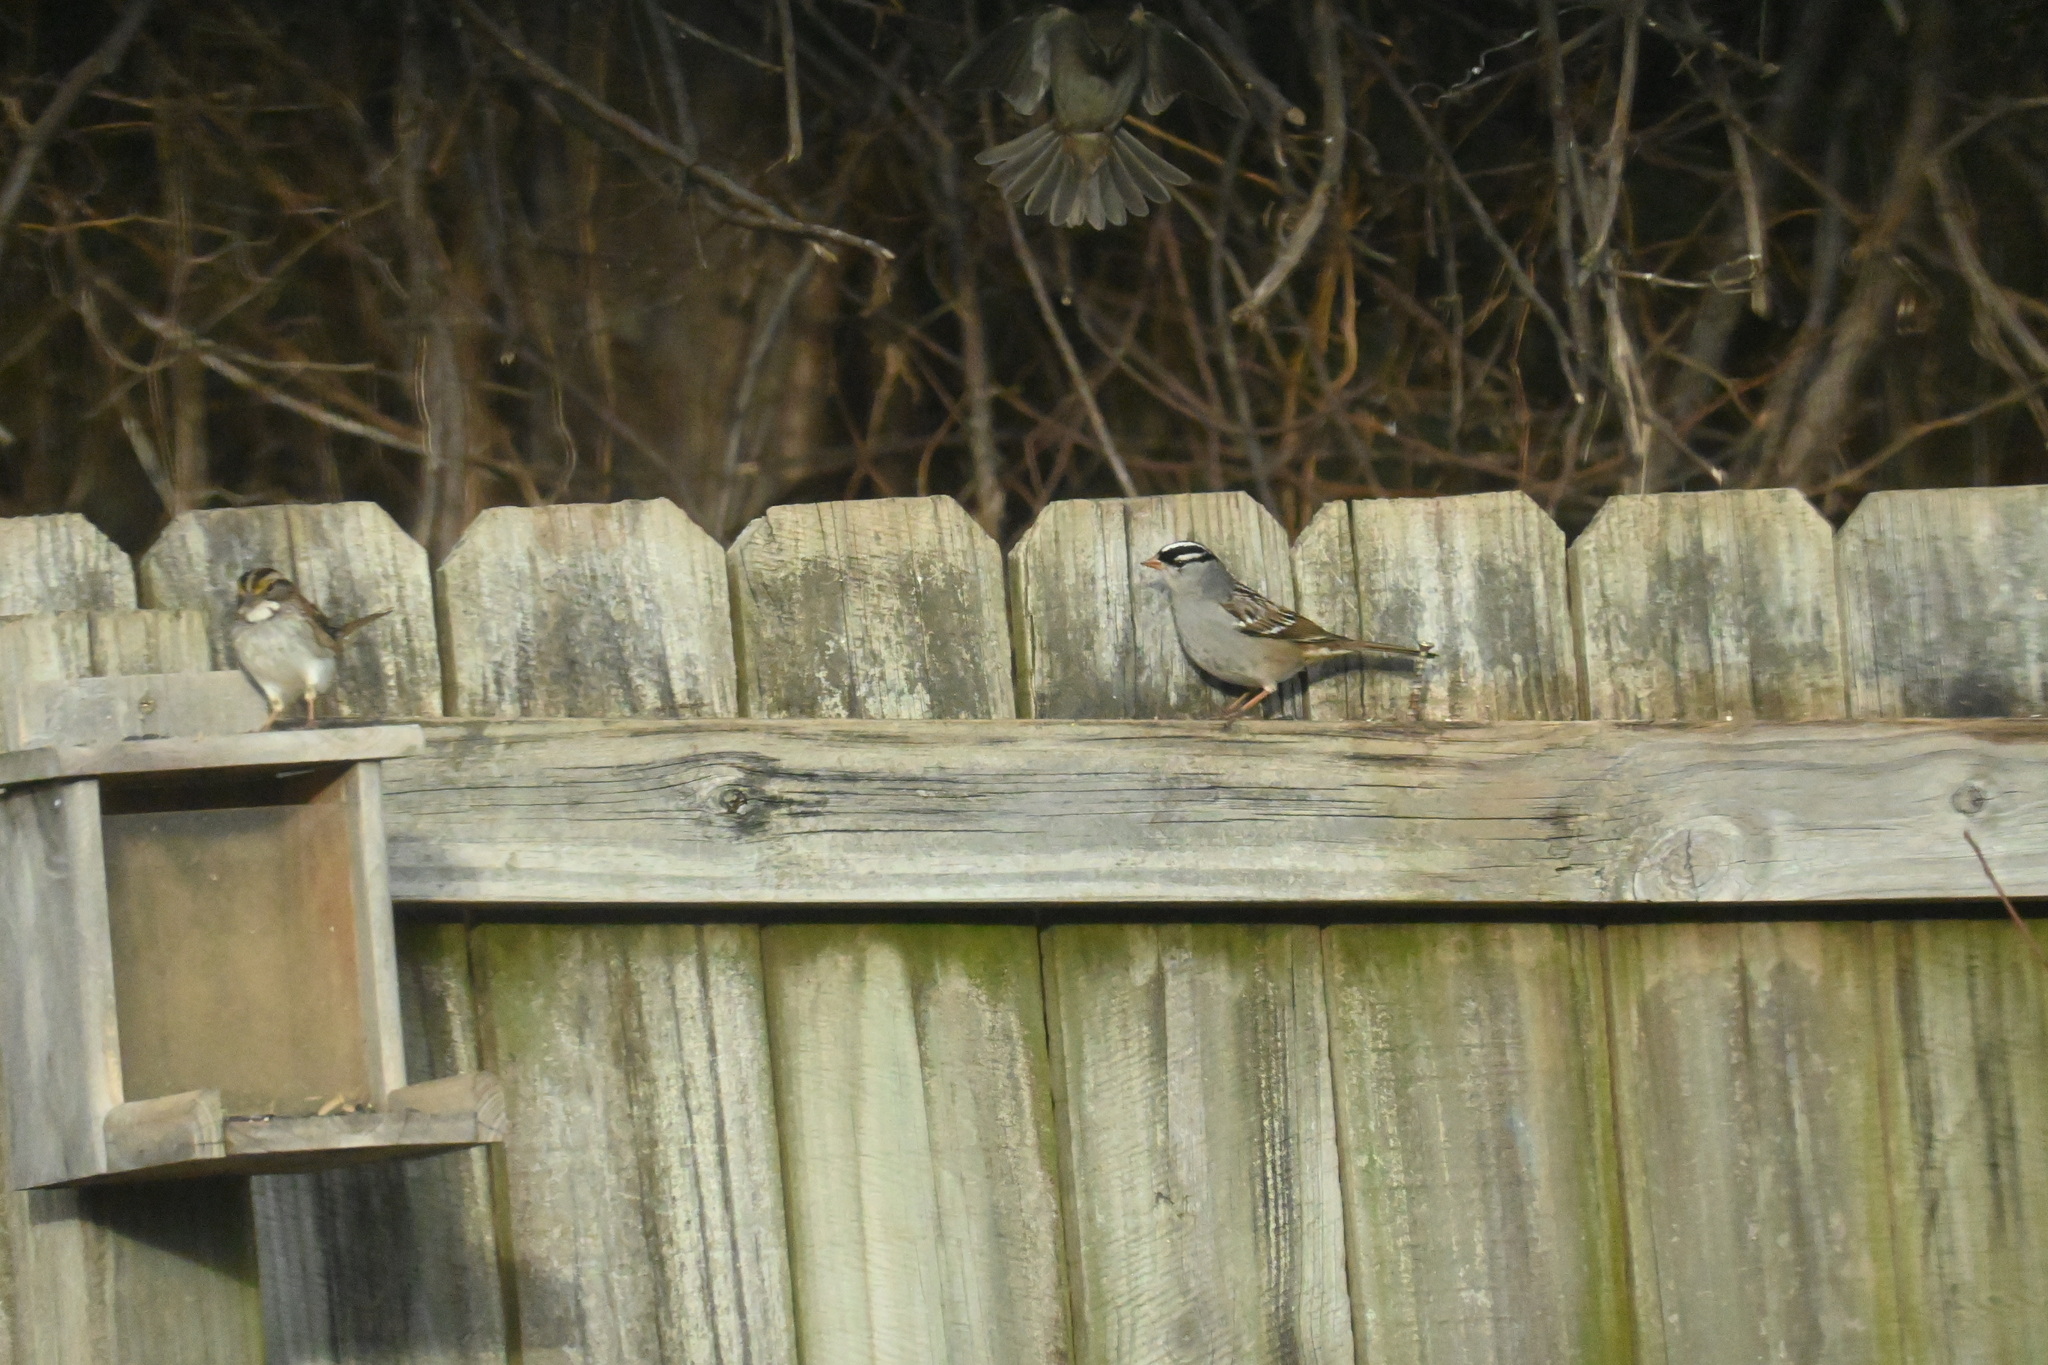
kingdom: Animalia
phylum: Chordata
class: Aves
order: Passeriformes
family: Passerellidae
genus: Zonotrichia
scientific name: Zonotrichia leucophrys
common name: White-crowned sparrow
